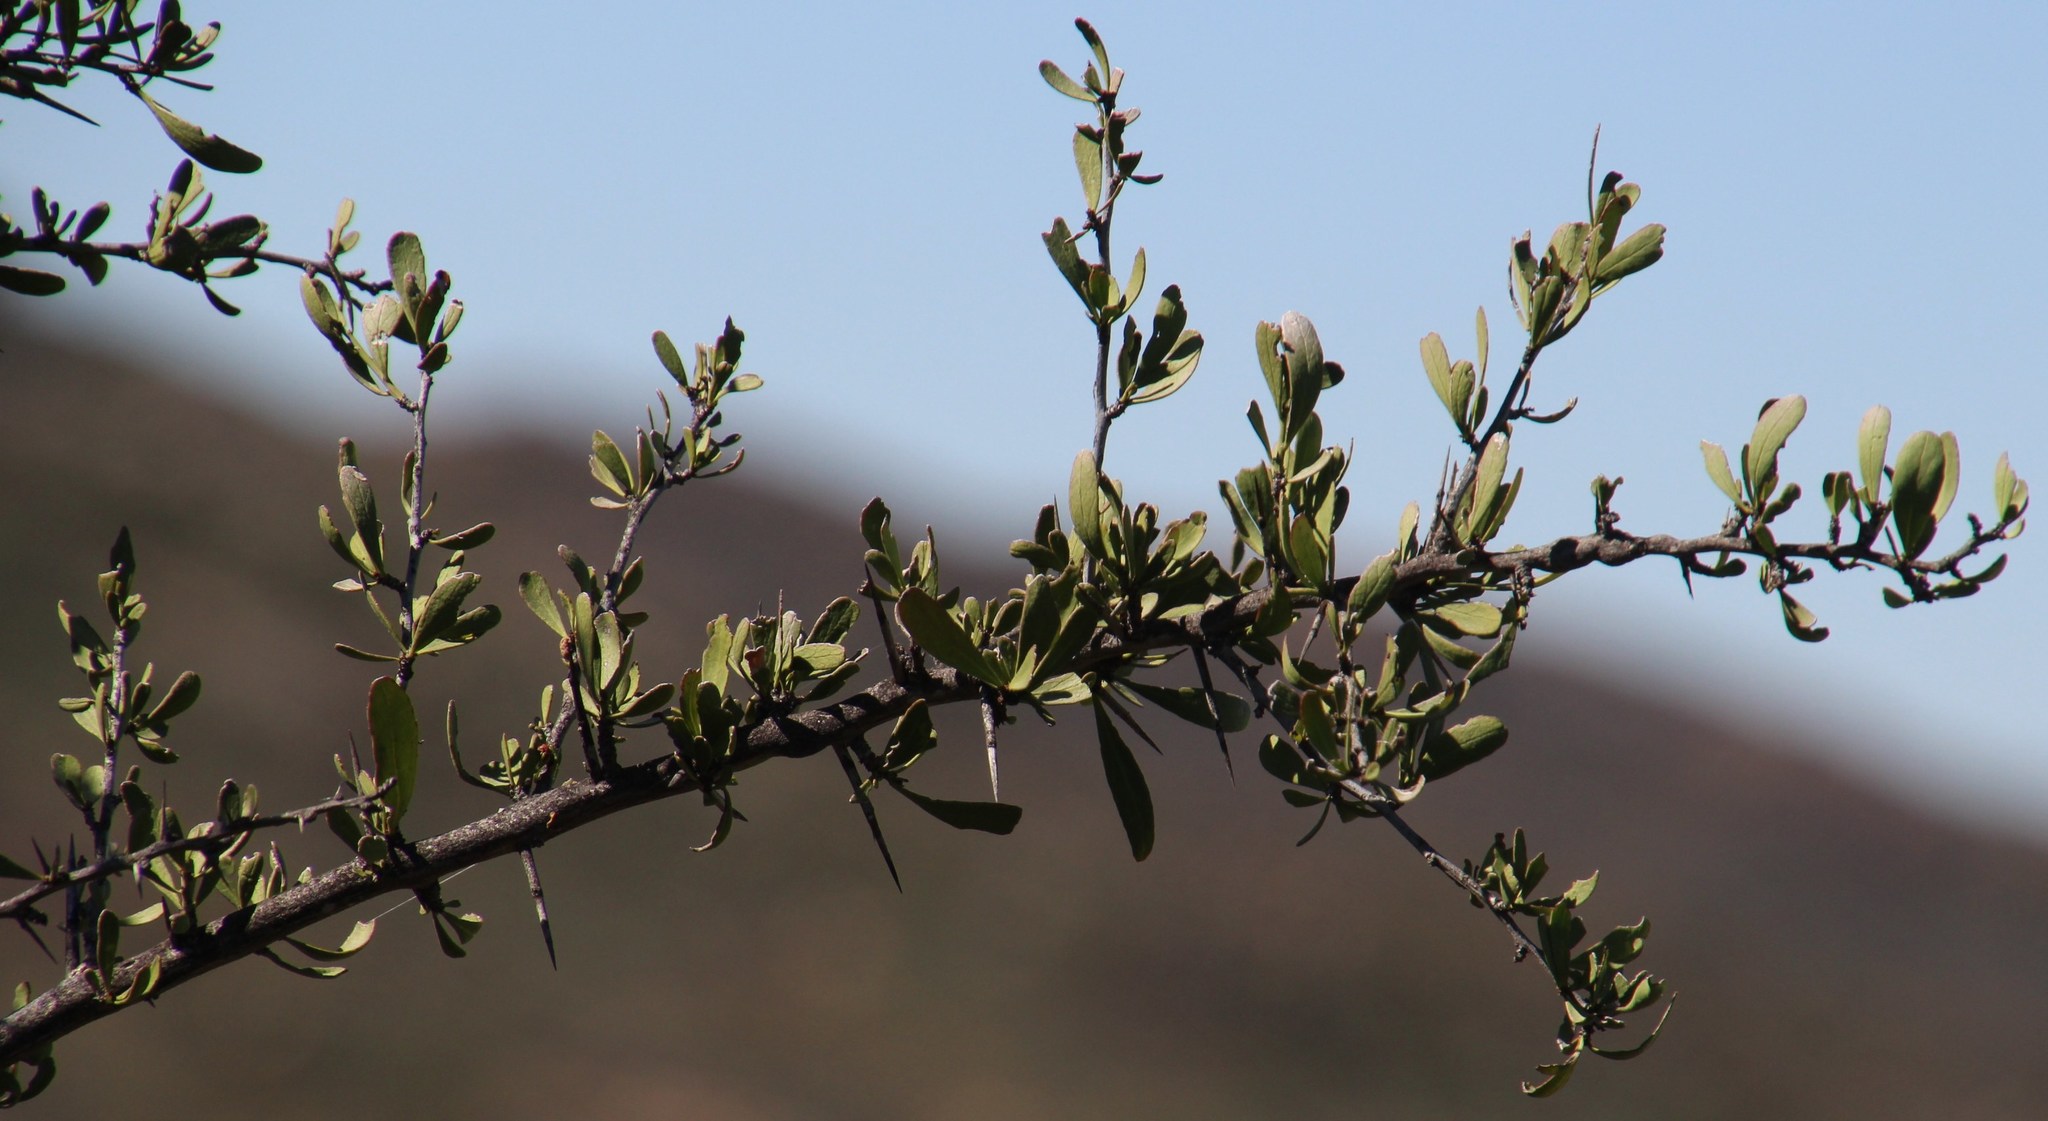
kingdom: Plantae
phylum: Tracheophyta
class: Magnoliopsida
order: Celastrales
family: Celastraceae
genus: Gymnosporia
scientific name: Gymnosporia buxifolia
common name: Common spike-thorn
